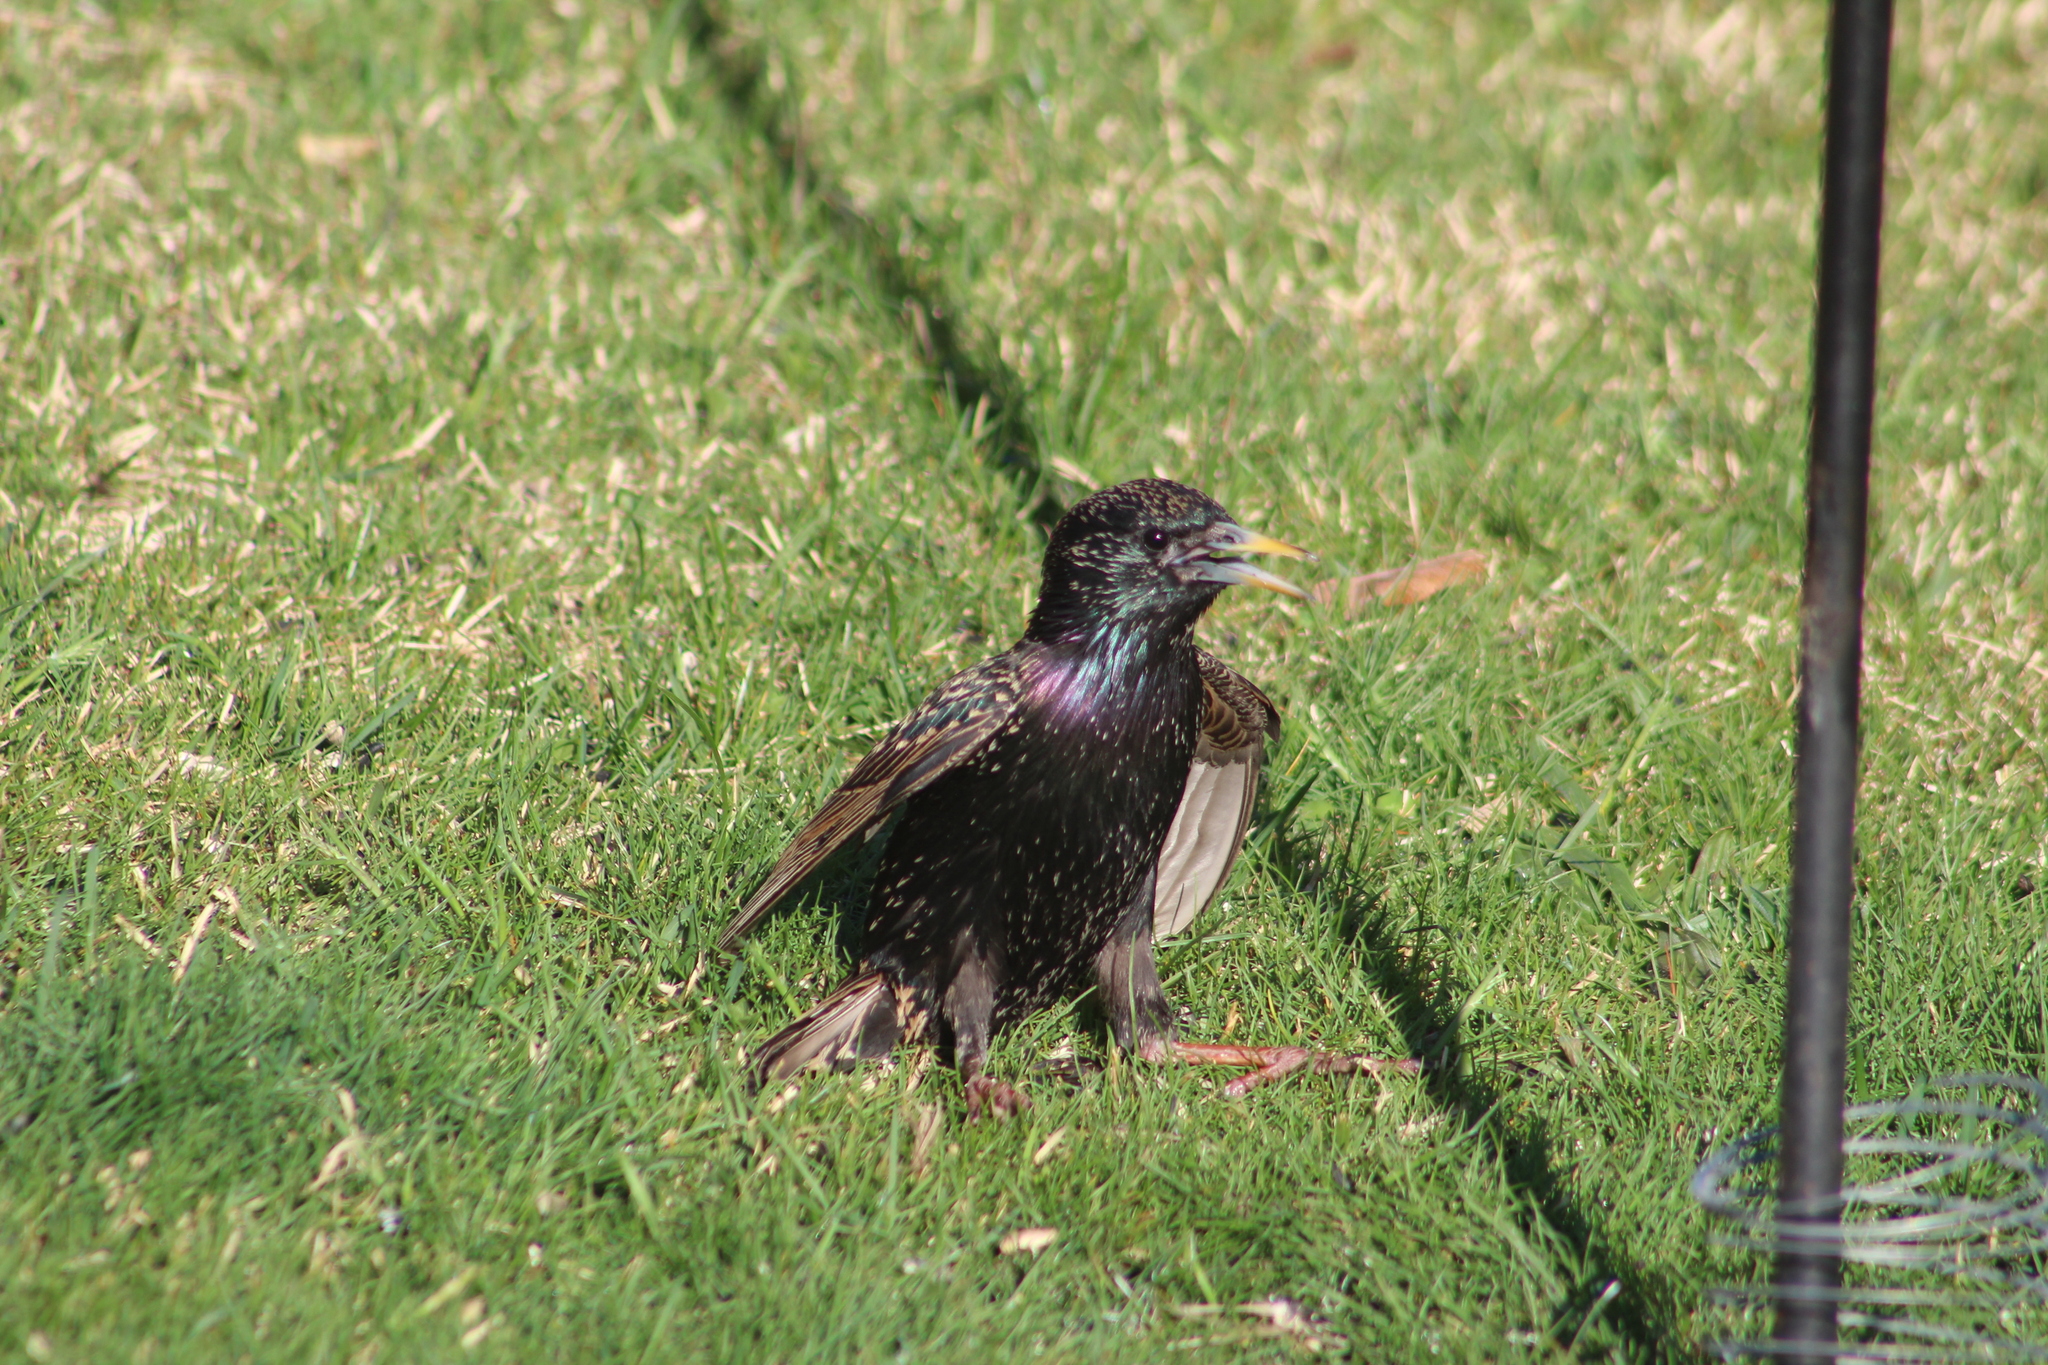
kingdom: Animalia
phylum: Chordata
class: Aves
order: Passeriformes
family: Sturnidae
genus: Sturnus
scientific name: Sturnus vulgaris
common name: Common starling
